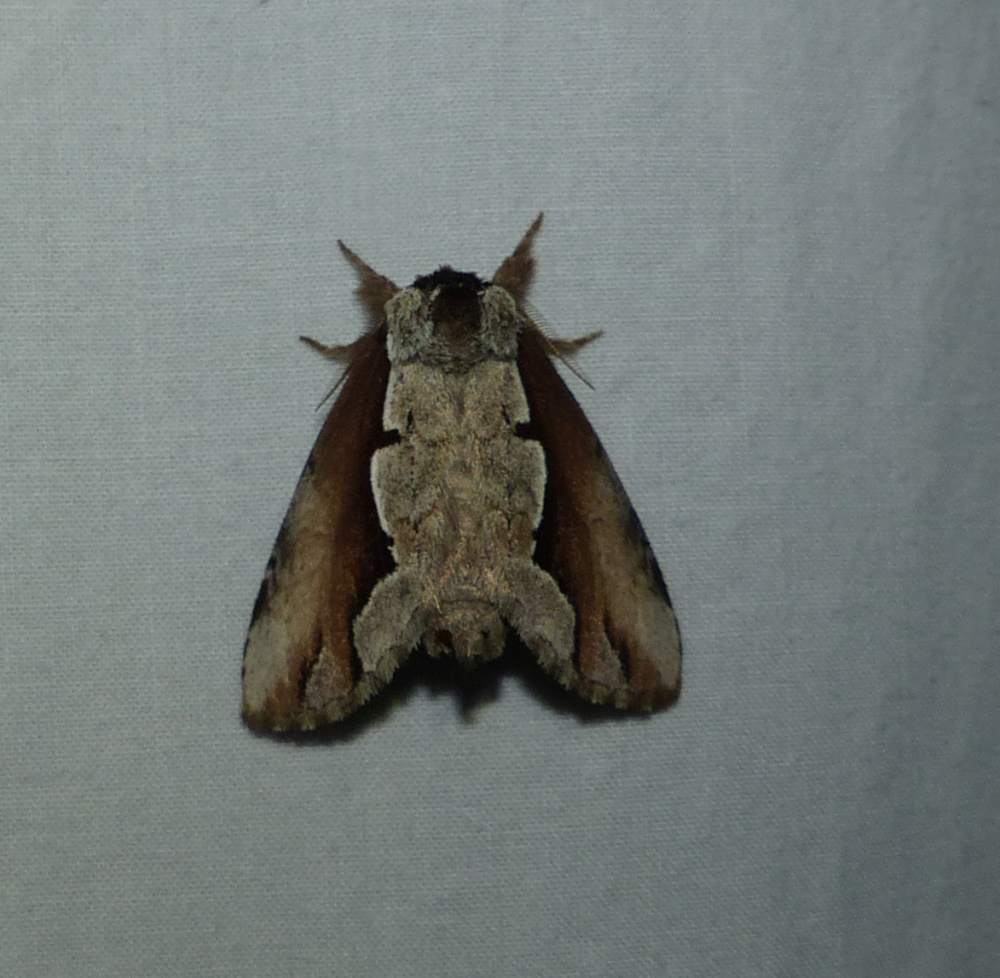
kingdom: Animalia
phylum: Arthropoda
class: Insecta
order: Lepidoptera
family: Notodontidae
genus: Nerice
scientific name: Nerice bidentata
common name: Double-toothed prominent
